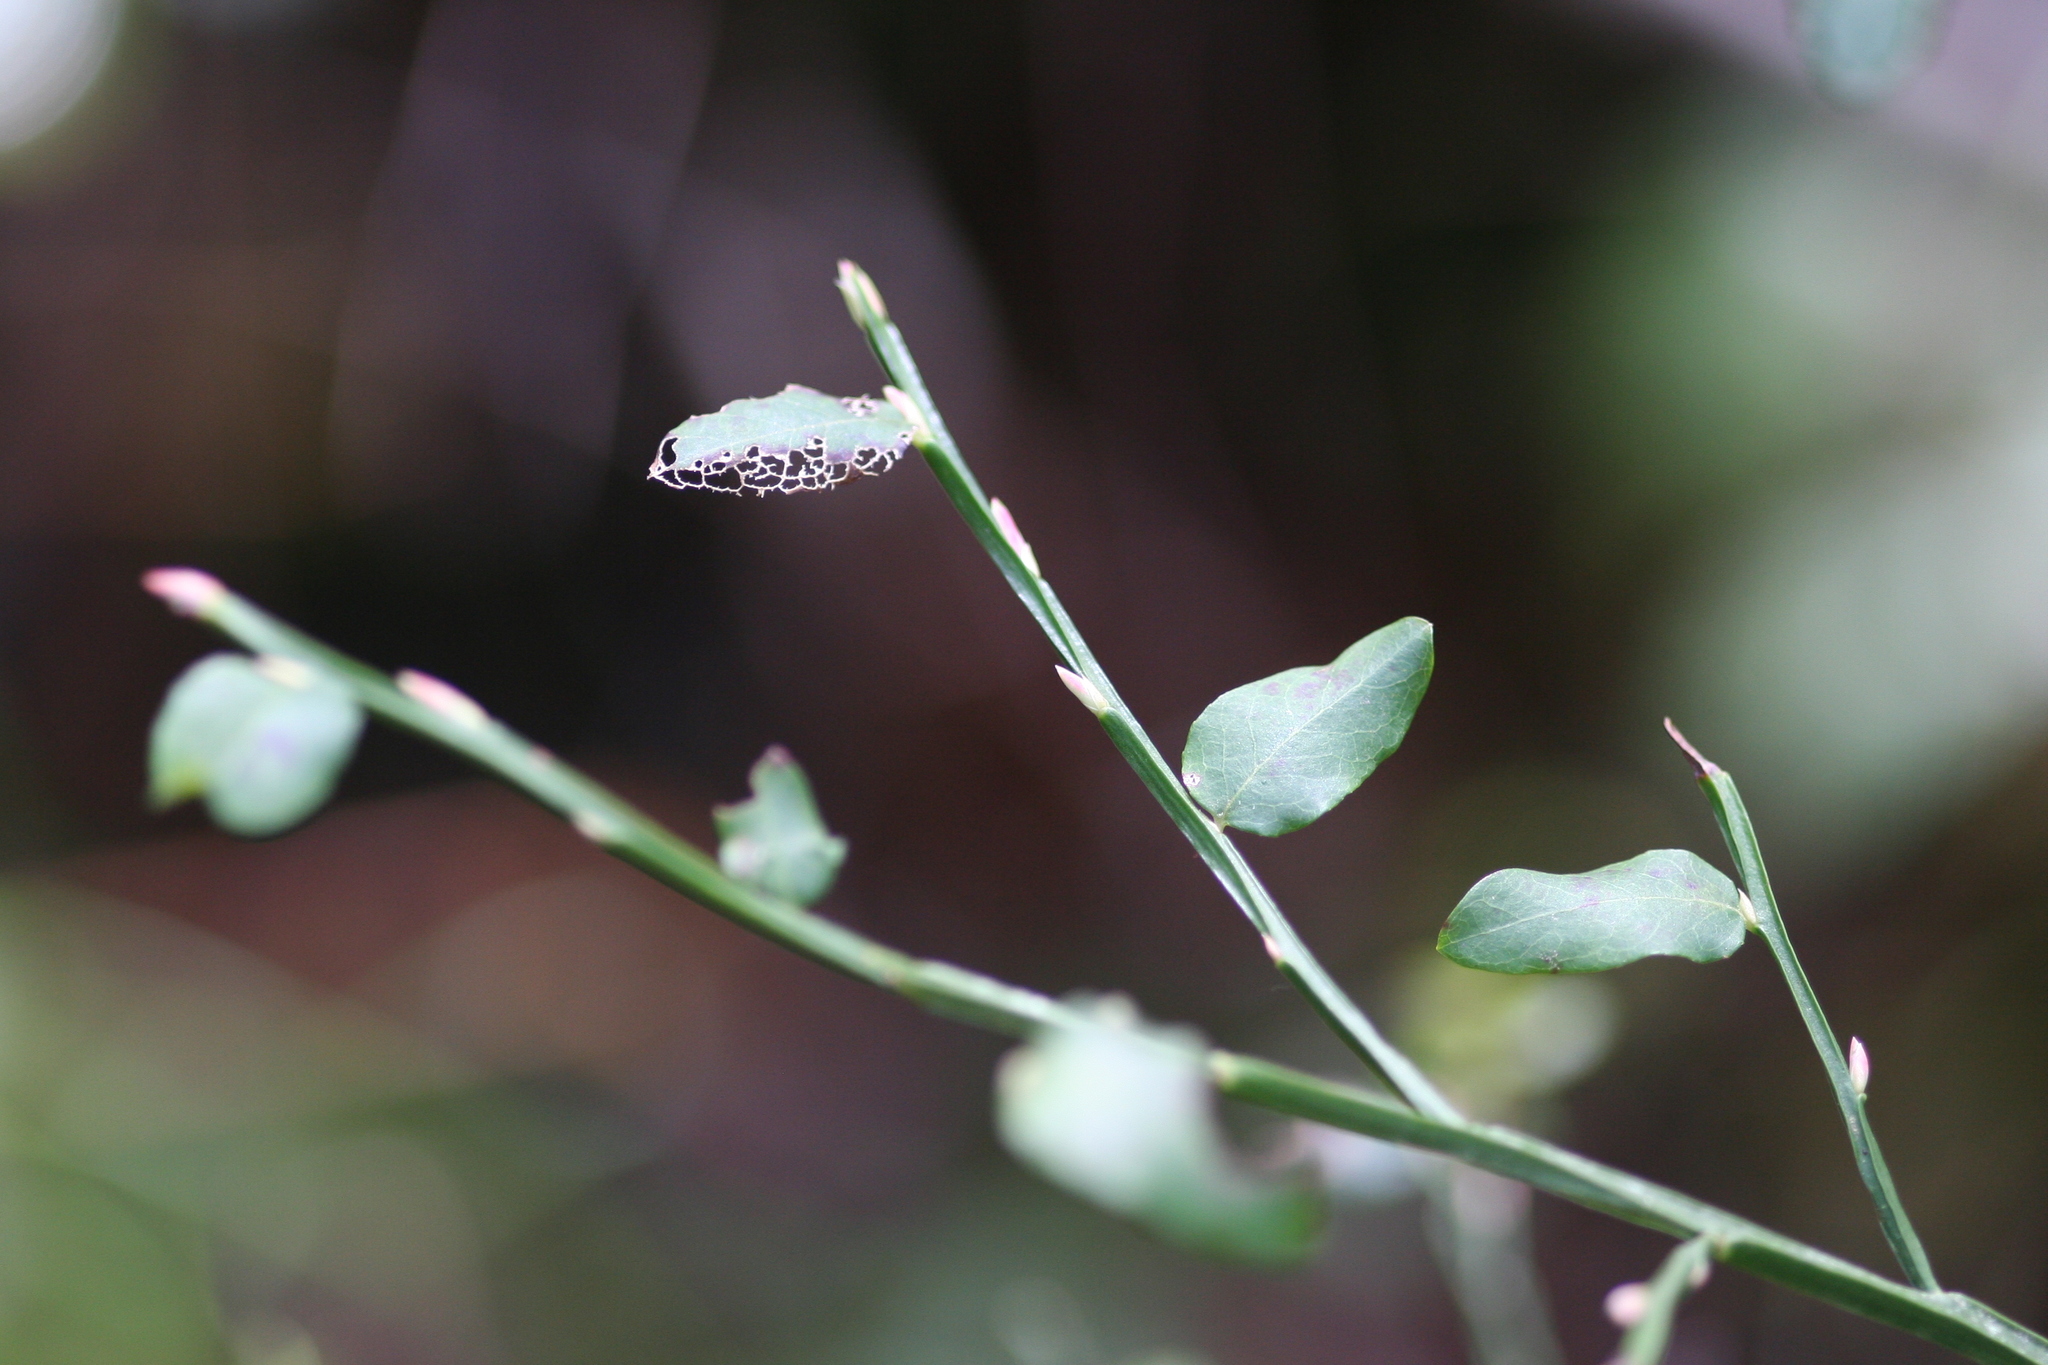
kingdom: Plantae
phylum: Tracheophyta
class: Magnoliopsida
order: Ericales
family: Ericaceae
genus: Vaccinium
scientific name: Vaccinium parvifolium
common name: Red-huckleberry
